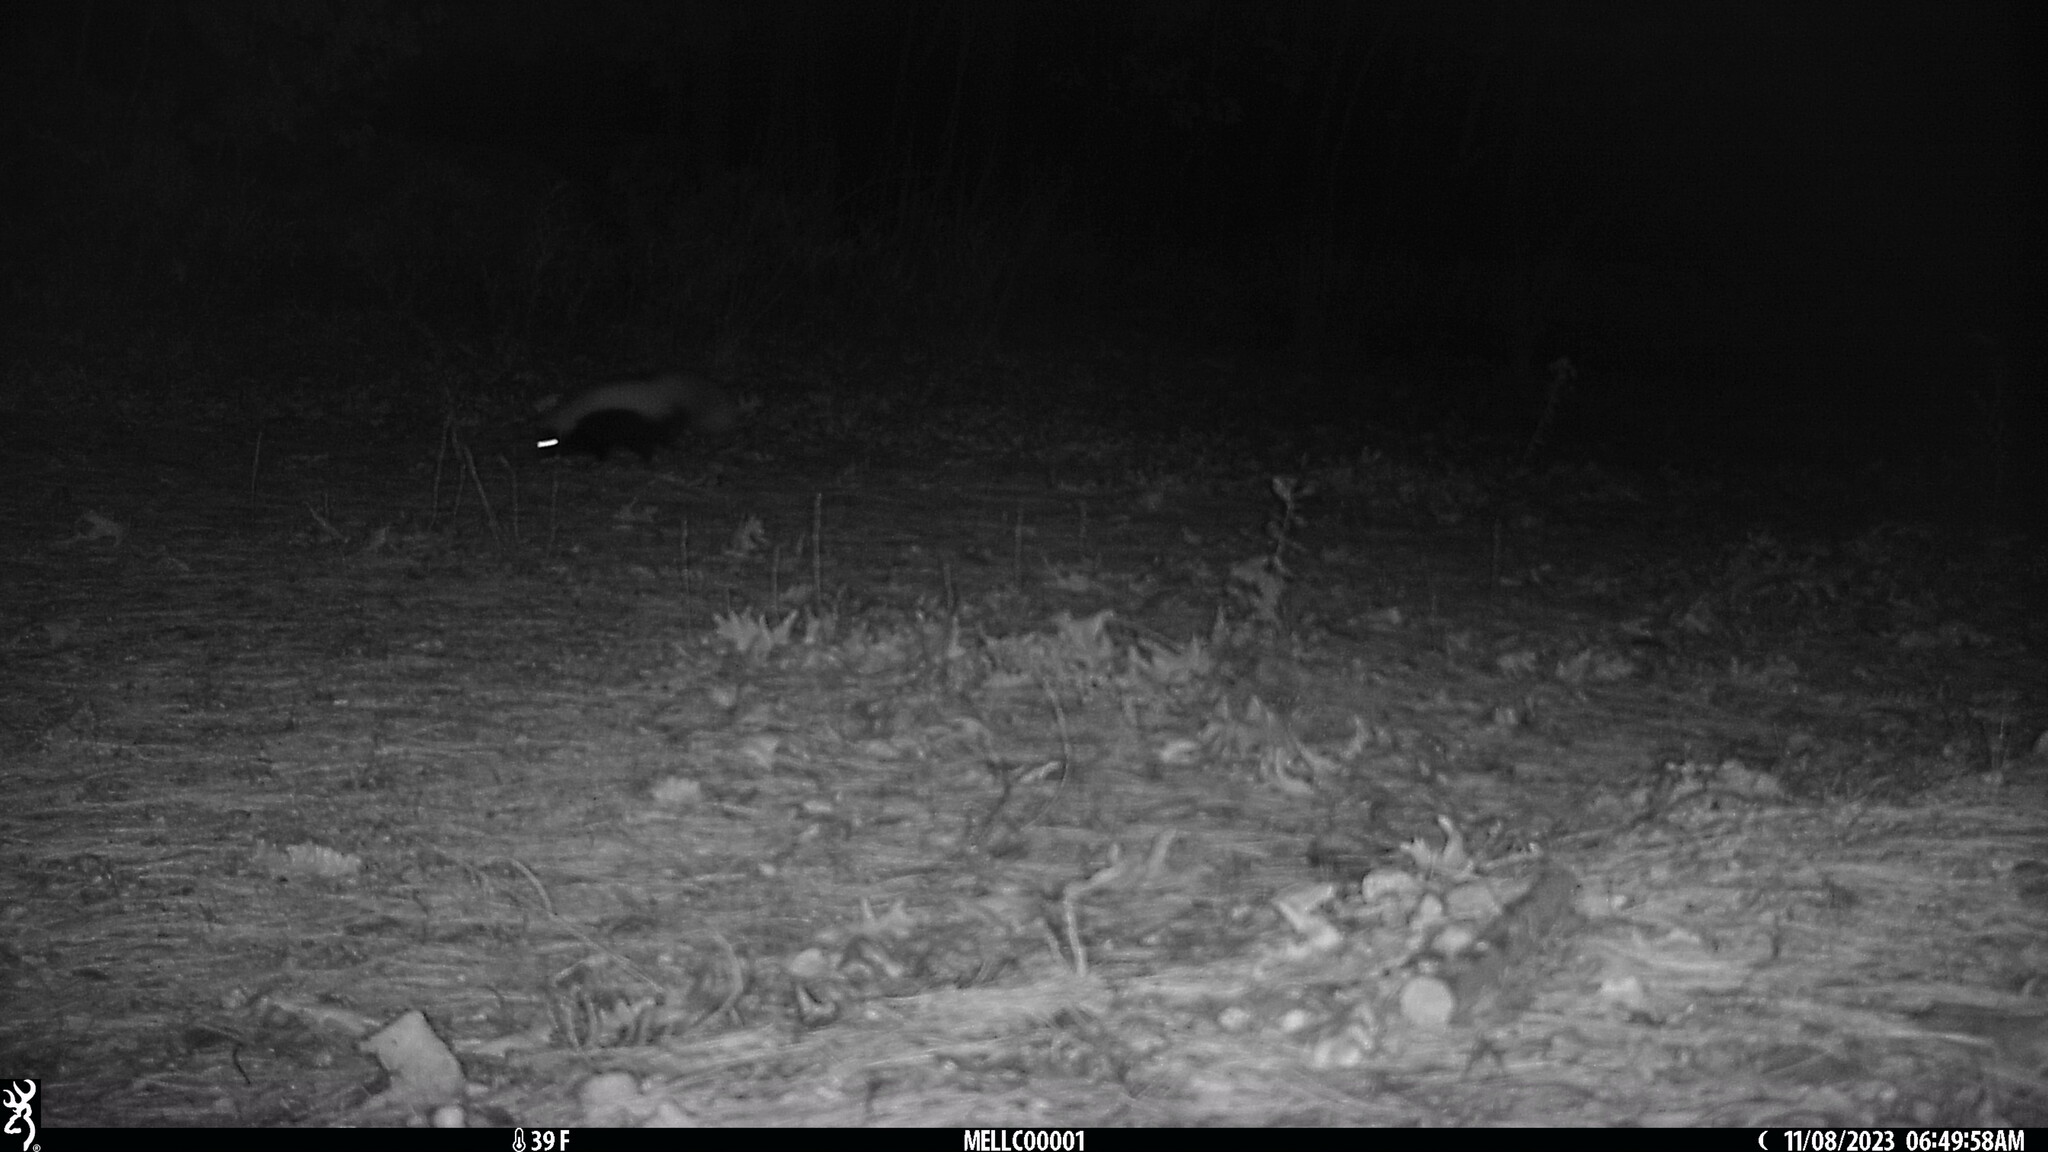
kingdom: Animalia
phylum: Chordata
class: Mammalia
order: Carnivora
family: Mephitidae
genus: Mephitis
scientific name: Mephitis mephitis
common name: Striped skunk
